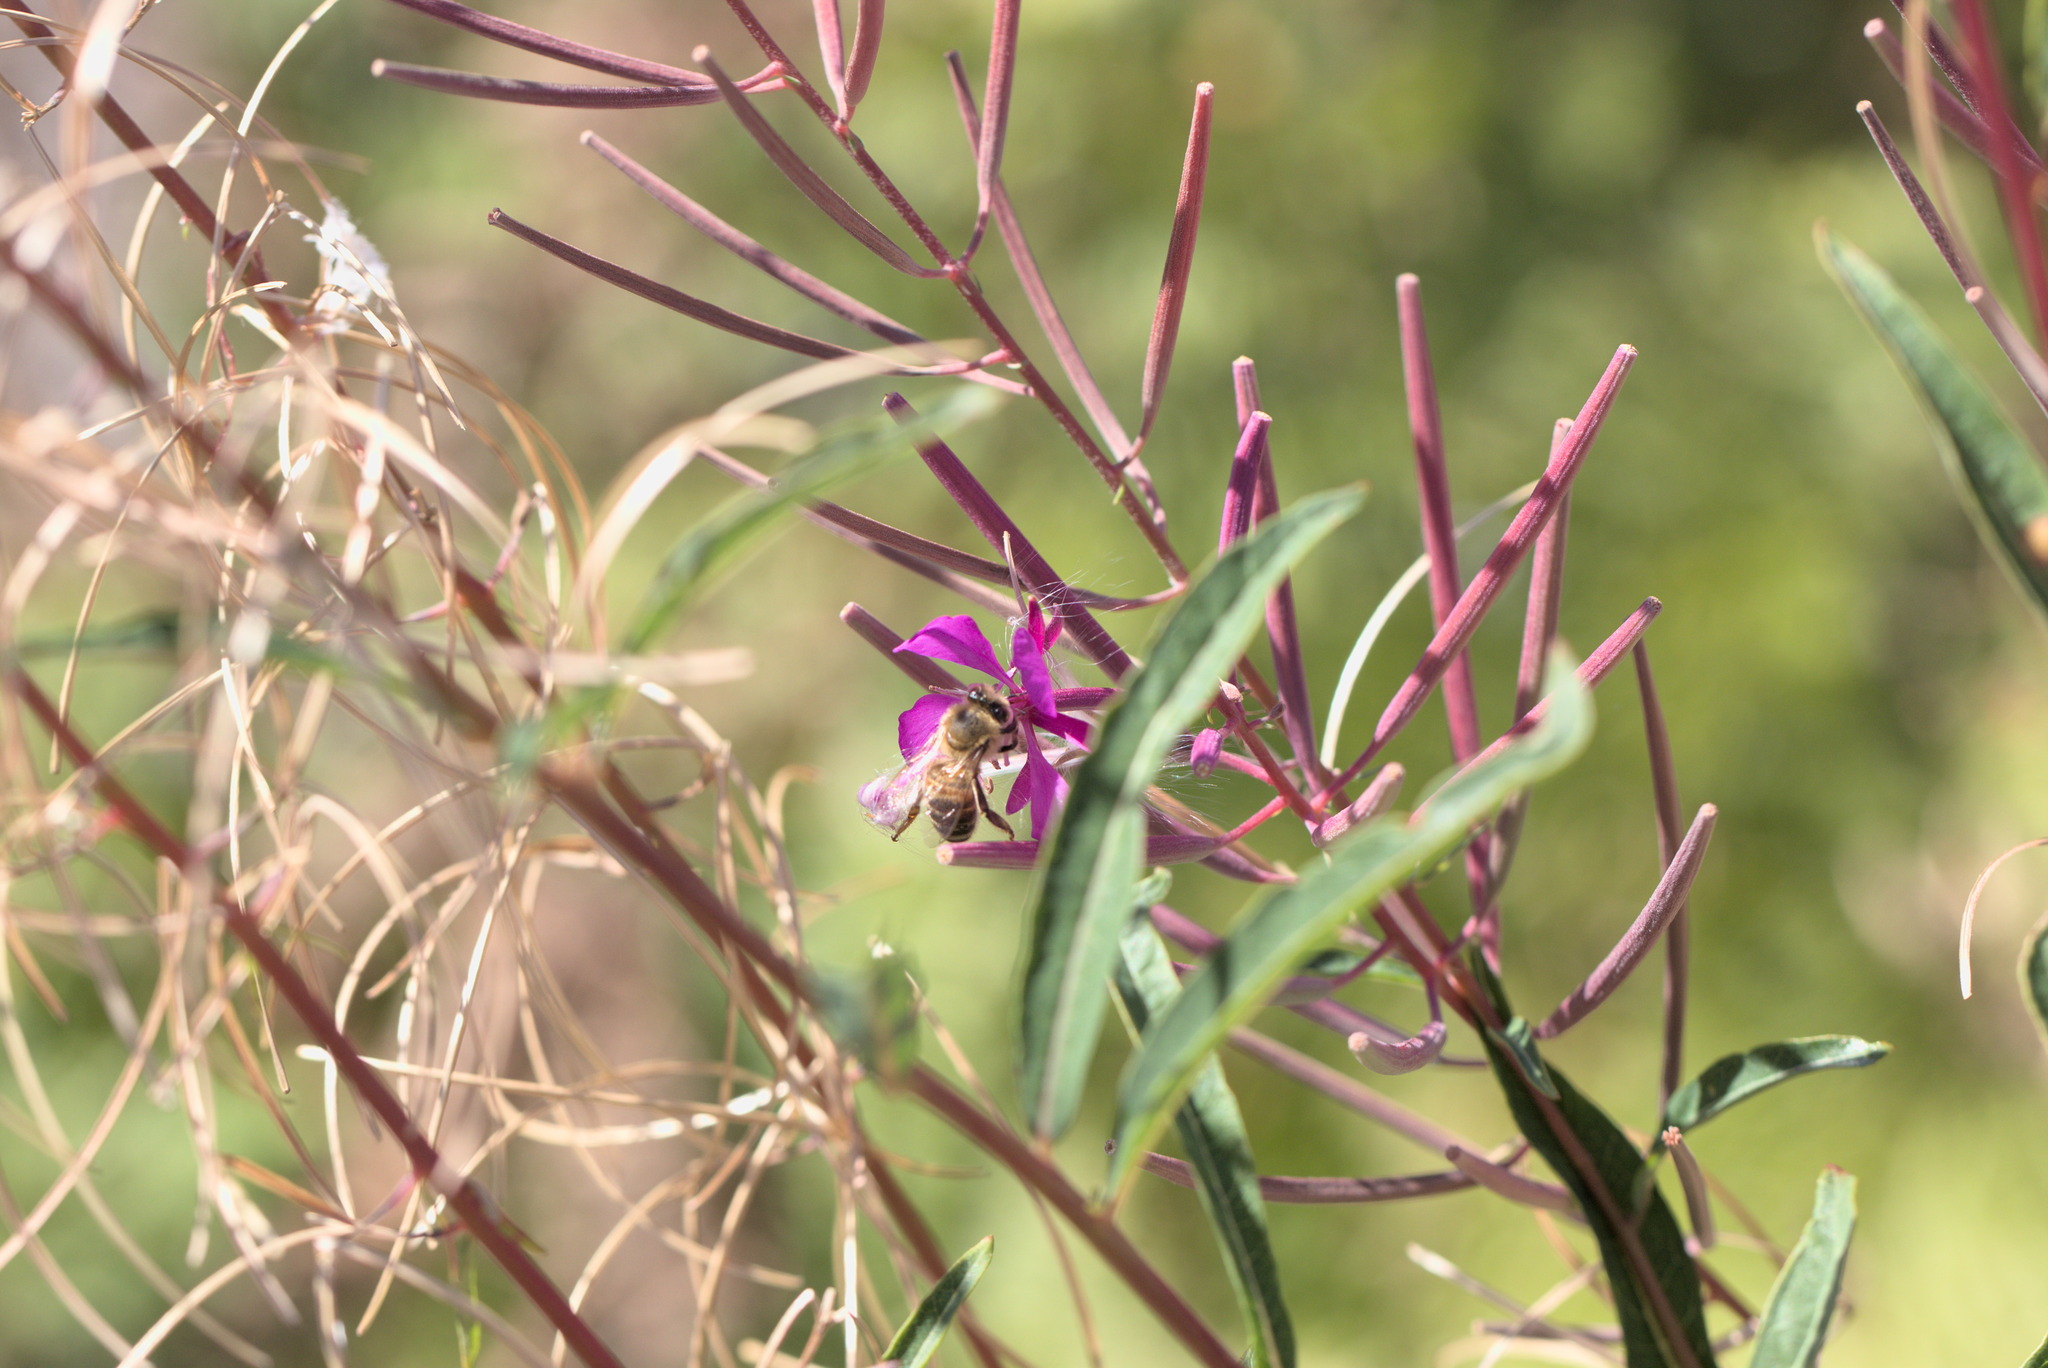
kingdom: Animalia
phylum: Arthropoda
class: Insecta
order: Hymenoptera
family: Apidae
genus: Apis
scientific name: Apis mellifera
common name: Honey bee
